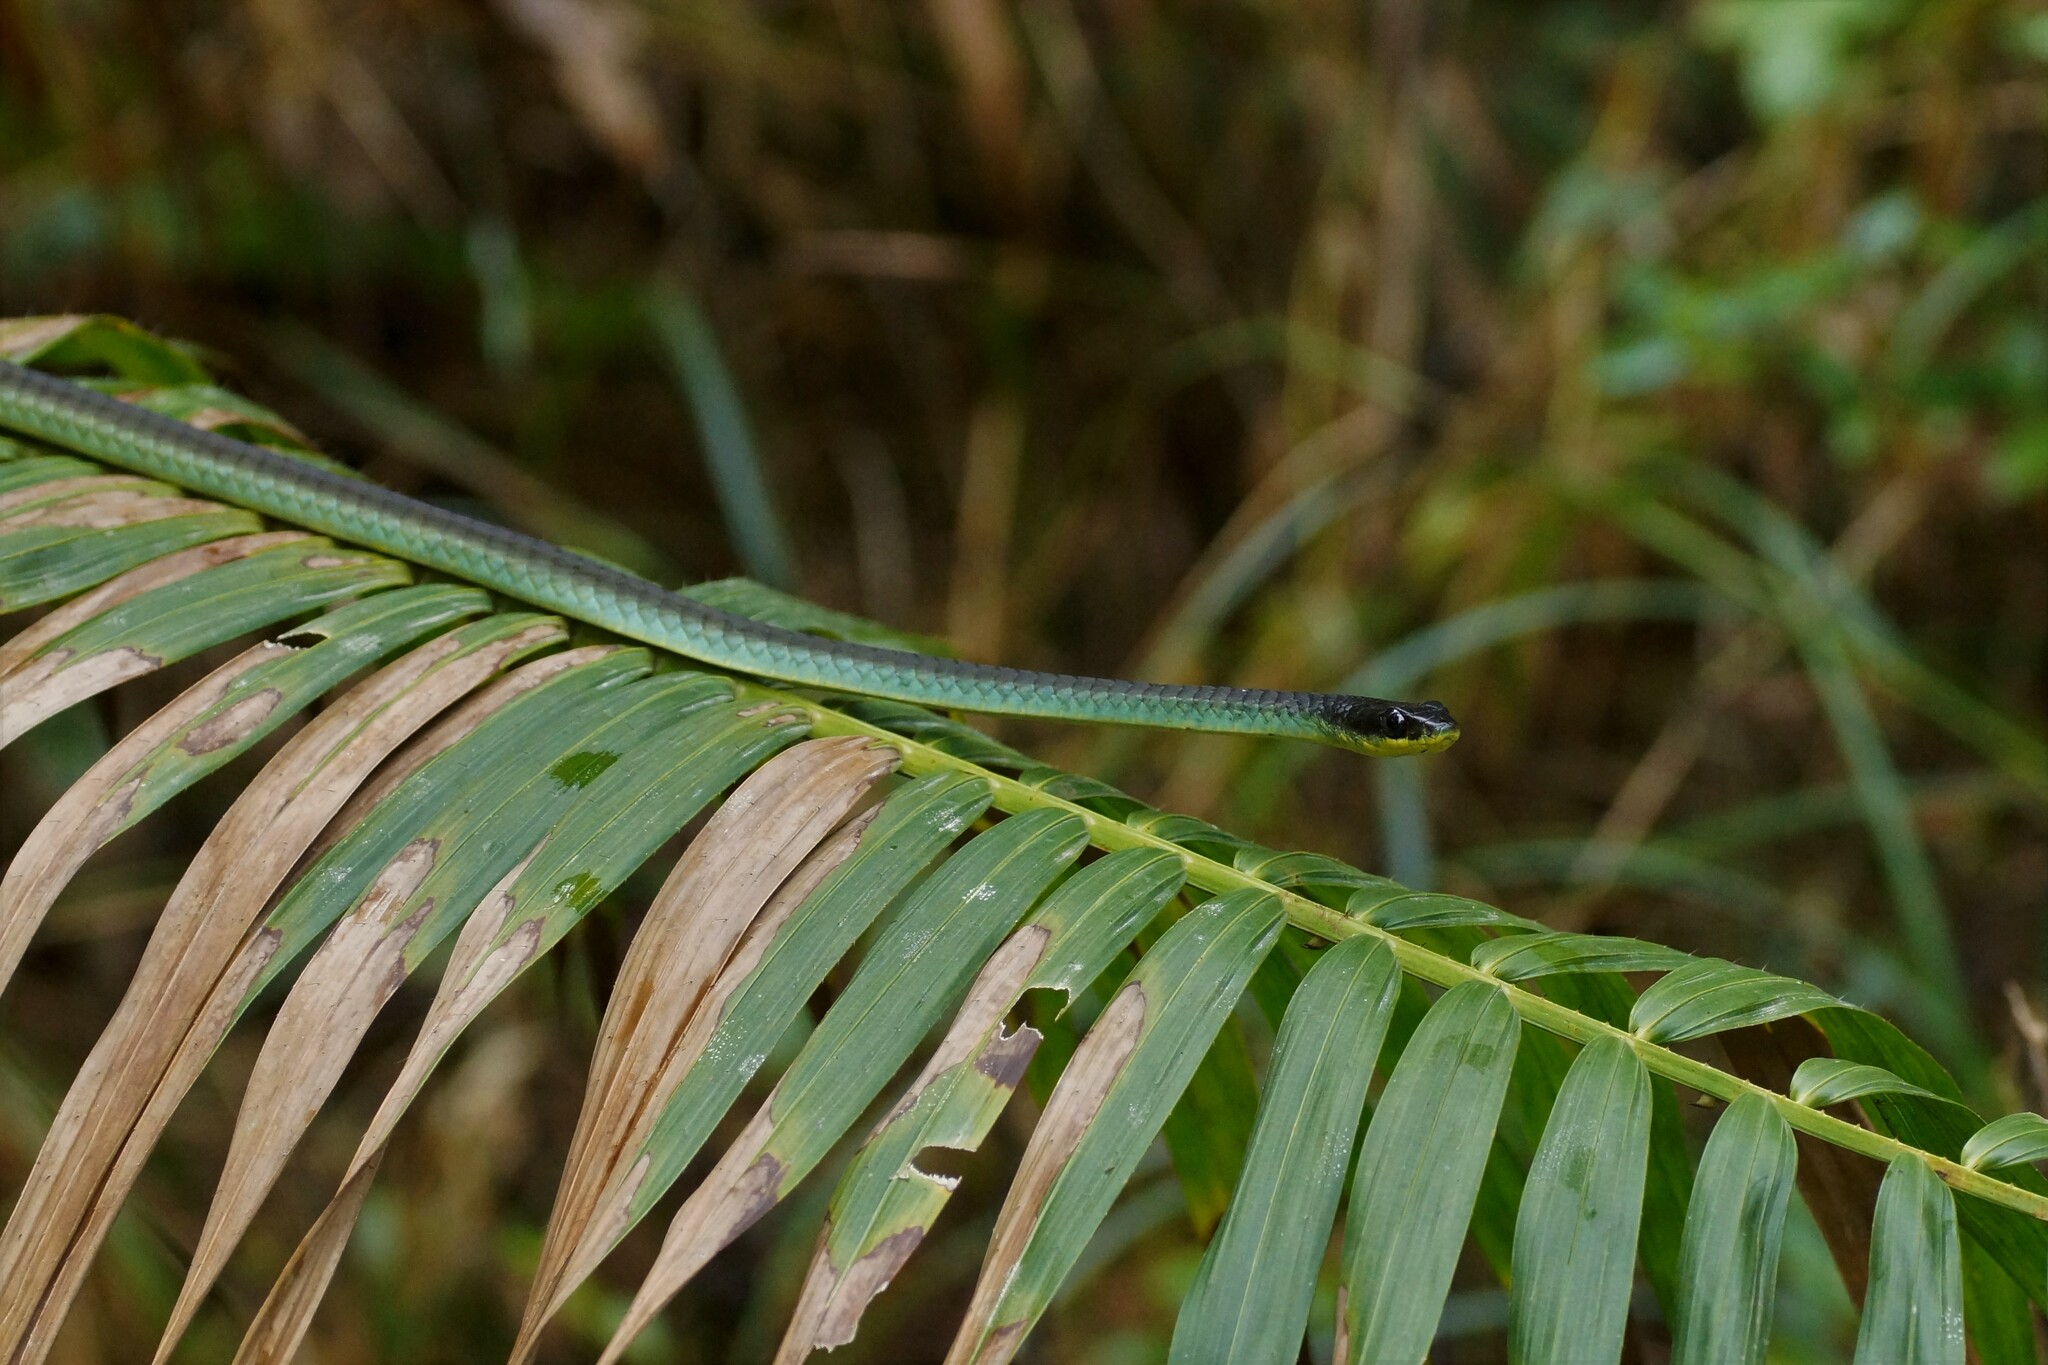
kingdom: Animalia
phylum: Chordata
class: Squamata
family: Colubridae
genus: Dendrelaphis
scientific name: Dendrelaphis punctulatus
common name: Common tree snake
